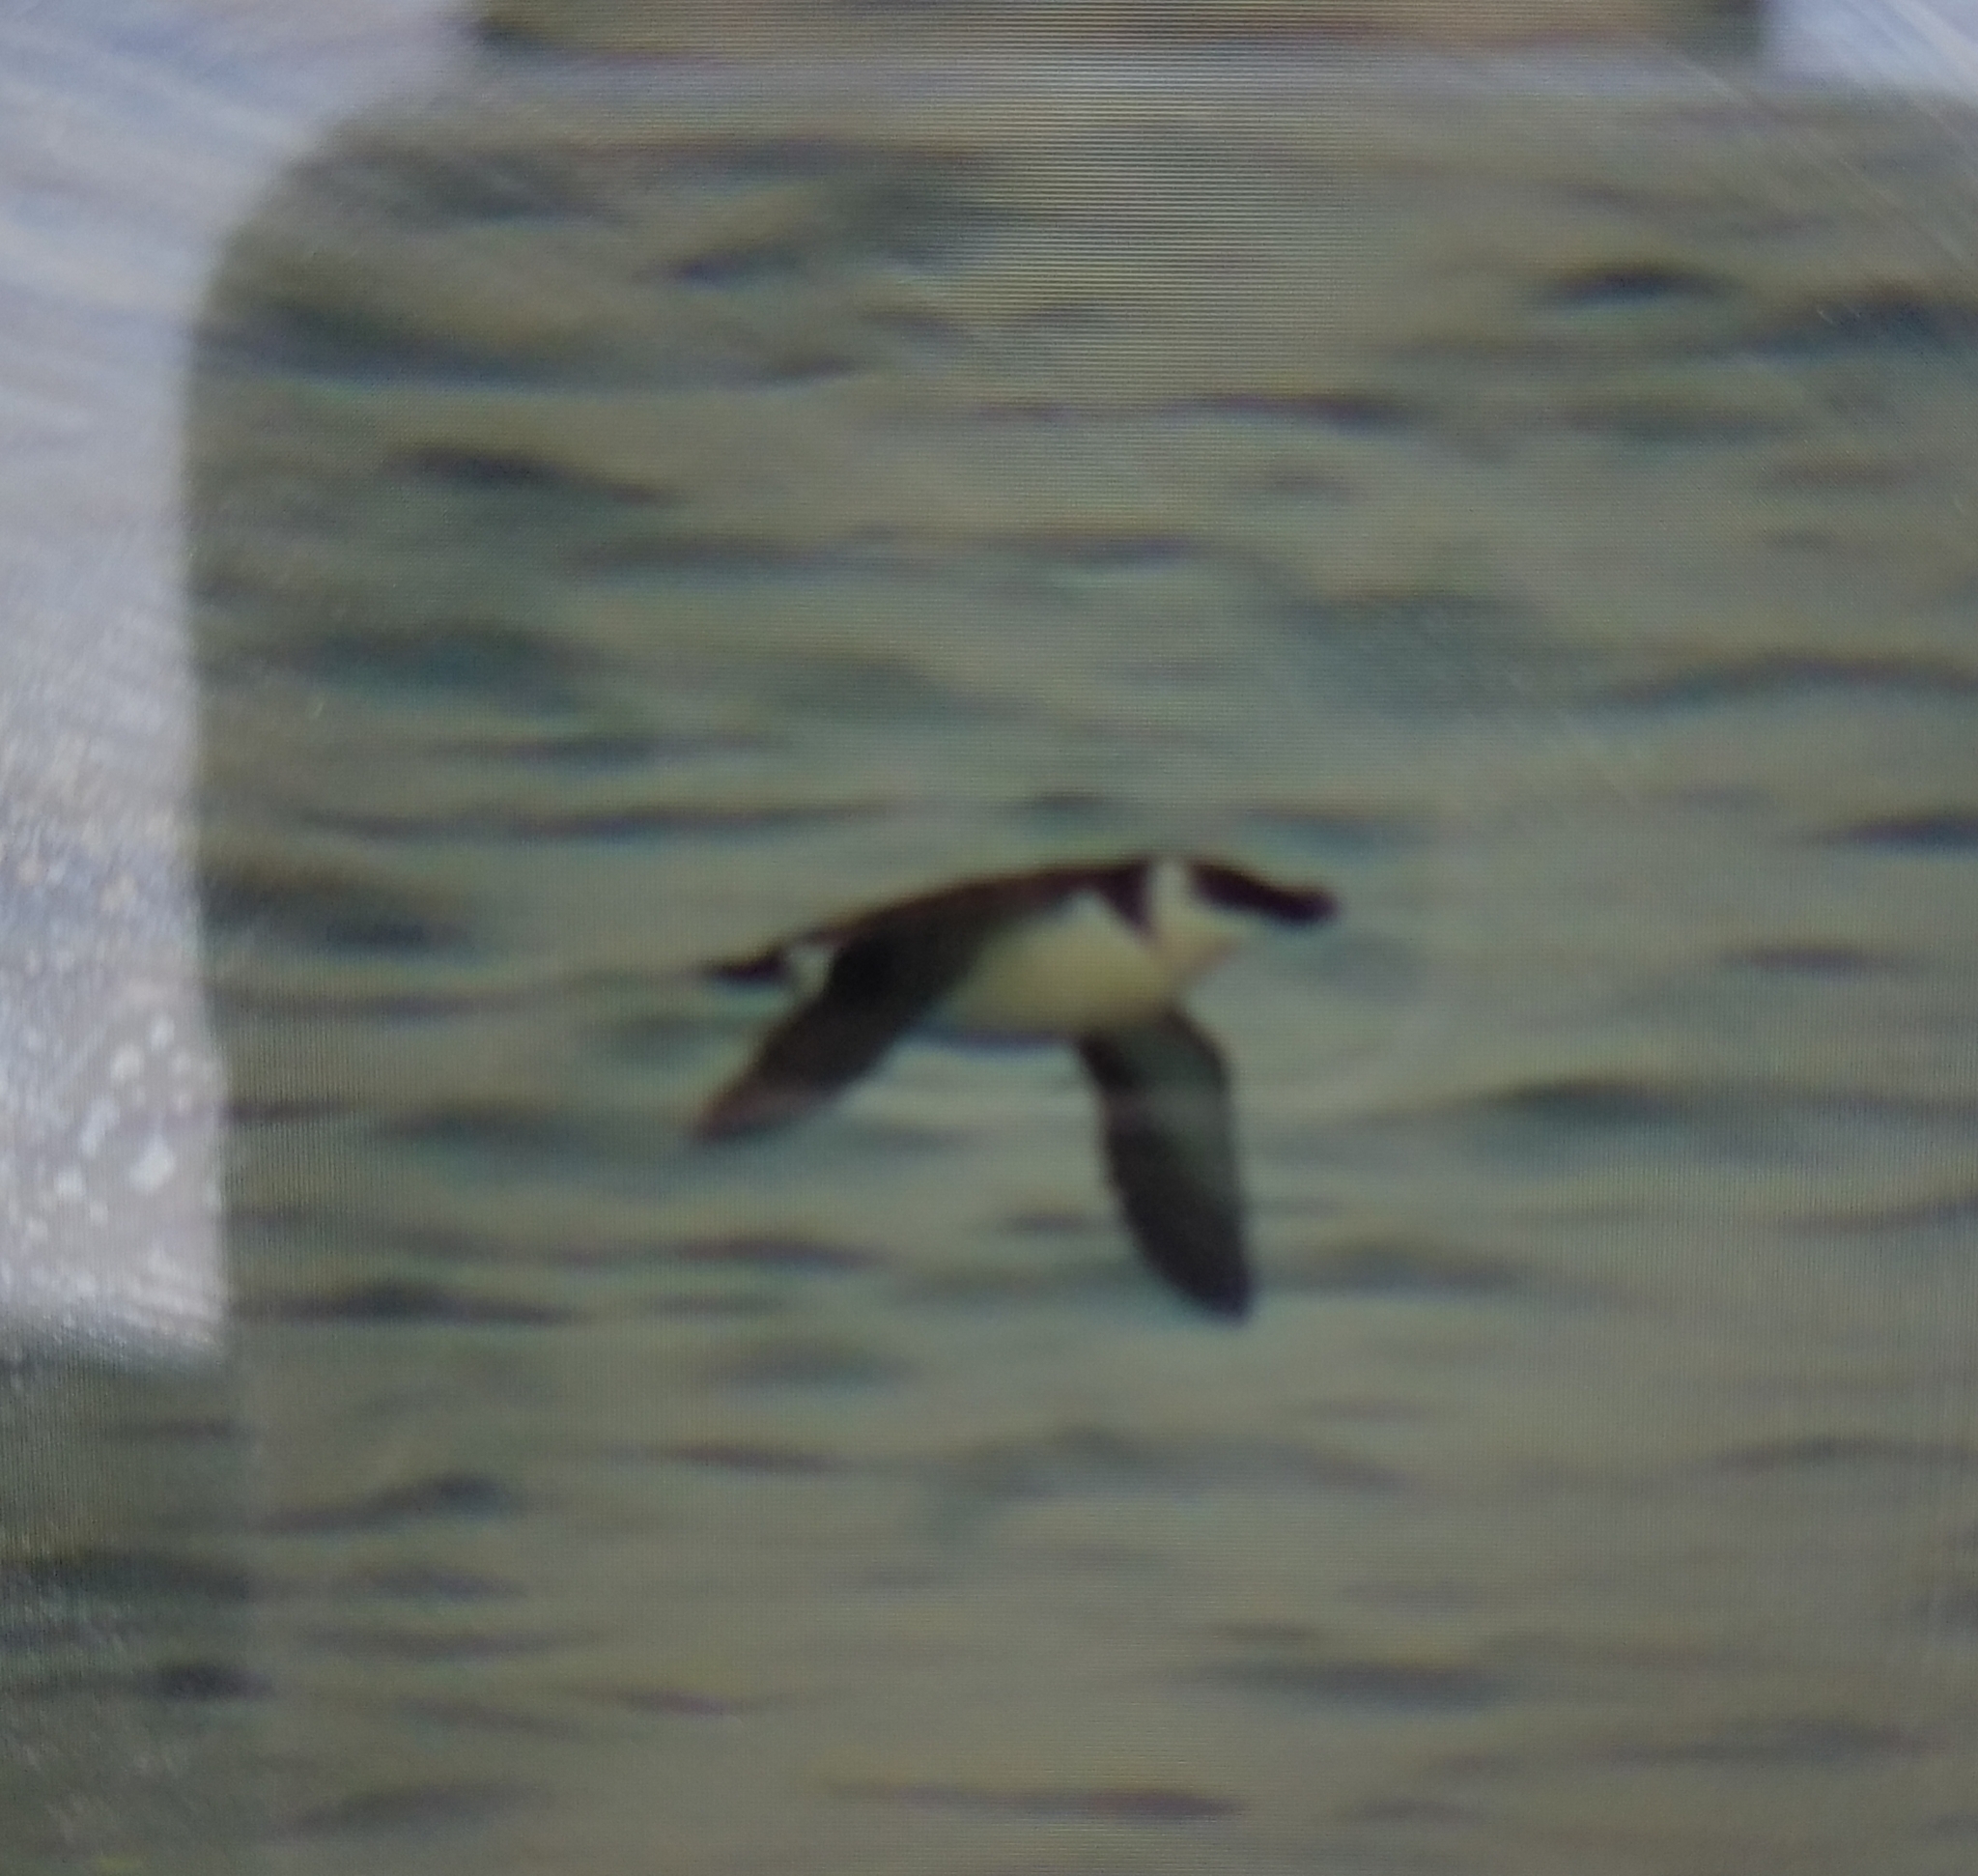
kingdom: Animalia
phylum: Chordata
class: Aves
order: Charadriiformes
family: Alcidae
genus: Alca
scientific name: Alca torda
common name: Razorbill
